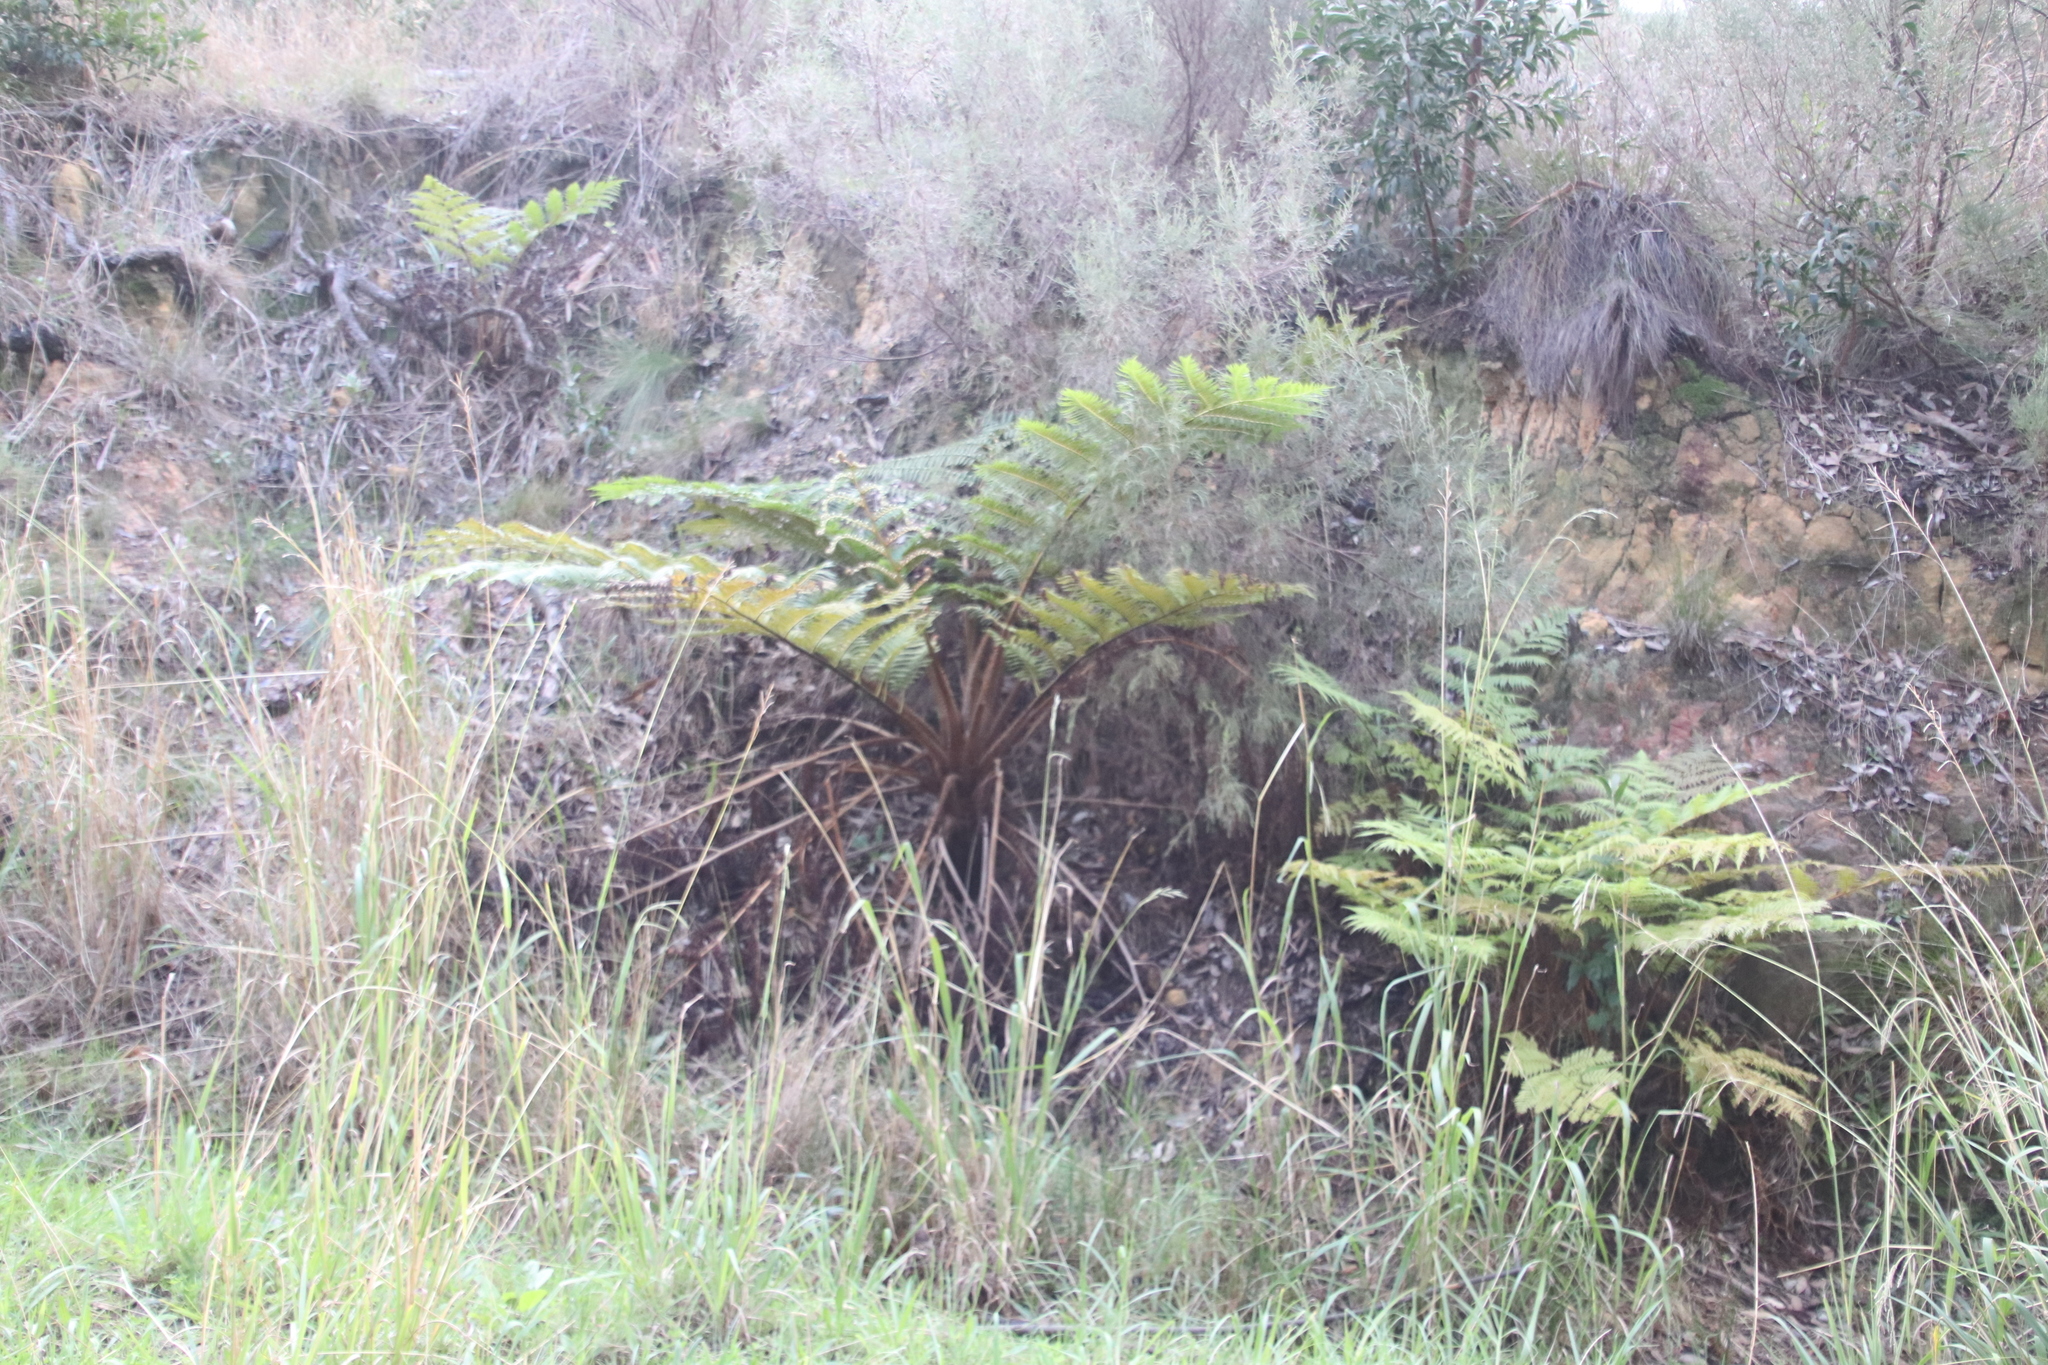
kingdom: Plantae
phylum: Tracheophyta
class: Polypodiopsida
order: Cyatheales
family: Cyatheaceae
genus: Sphaeropteris
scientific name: Sphaeropteris cooperi
